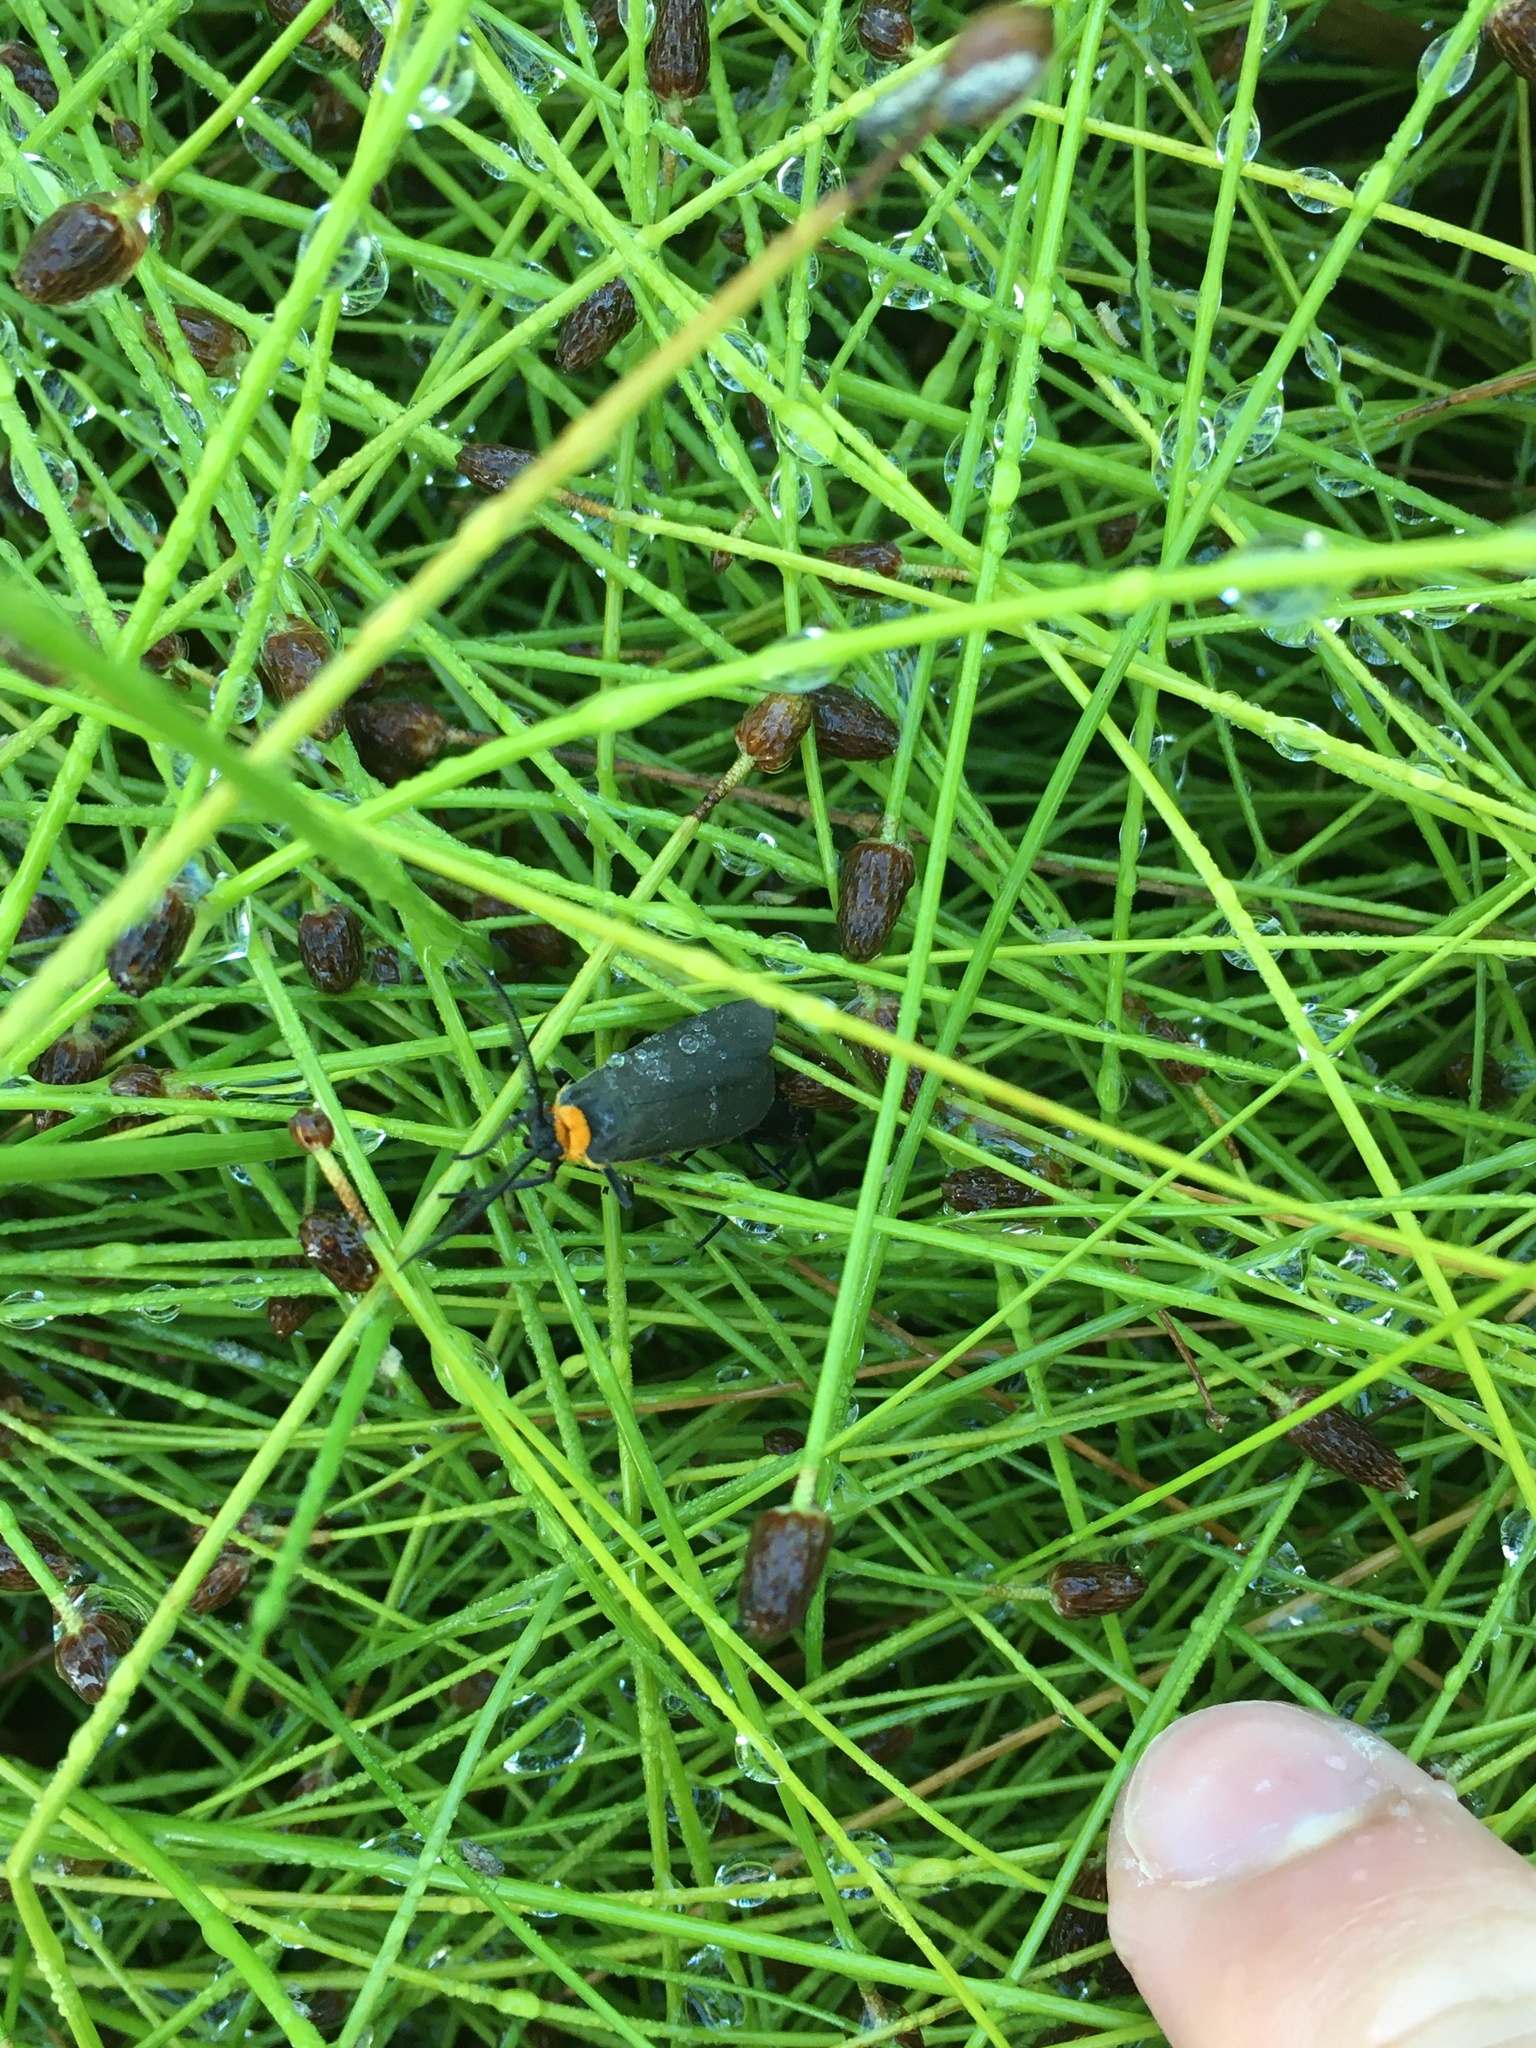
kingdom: Animalia
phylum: Arthropoda
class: Insecta
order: Lepidoptera
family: Erebidae
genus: Cisseps
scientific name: Cisseps fulvicollis
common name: Yellow-collared scape moth
